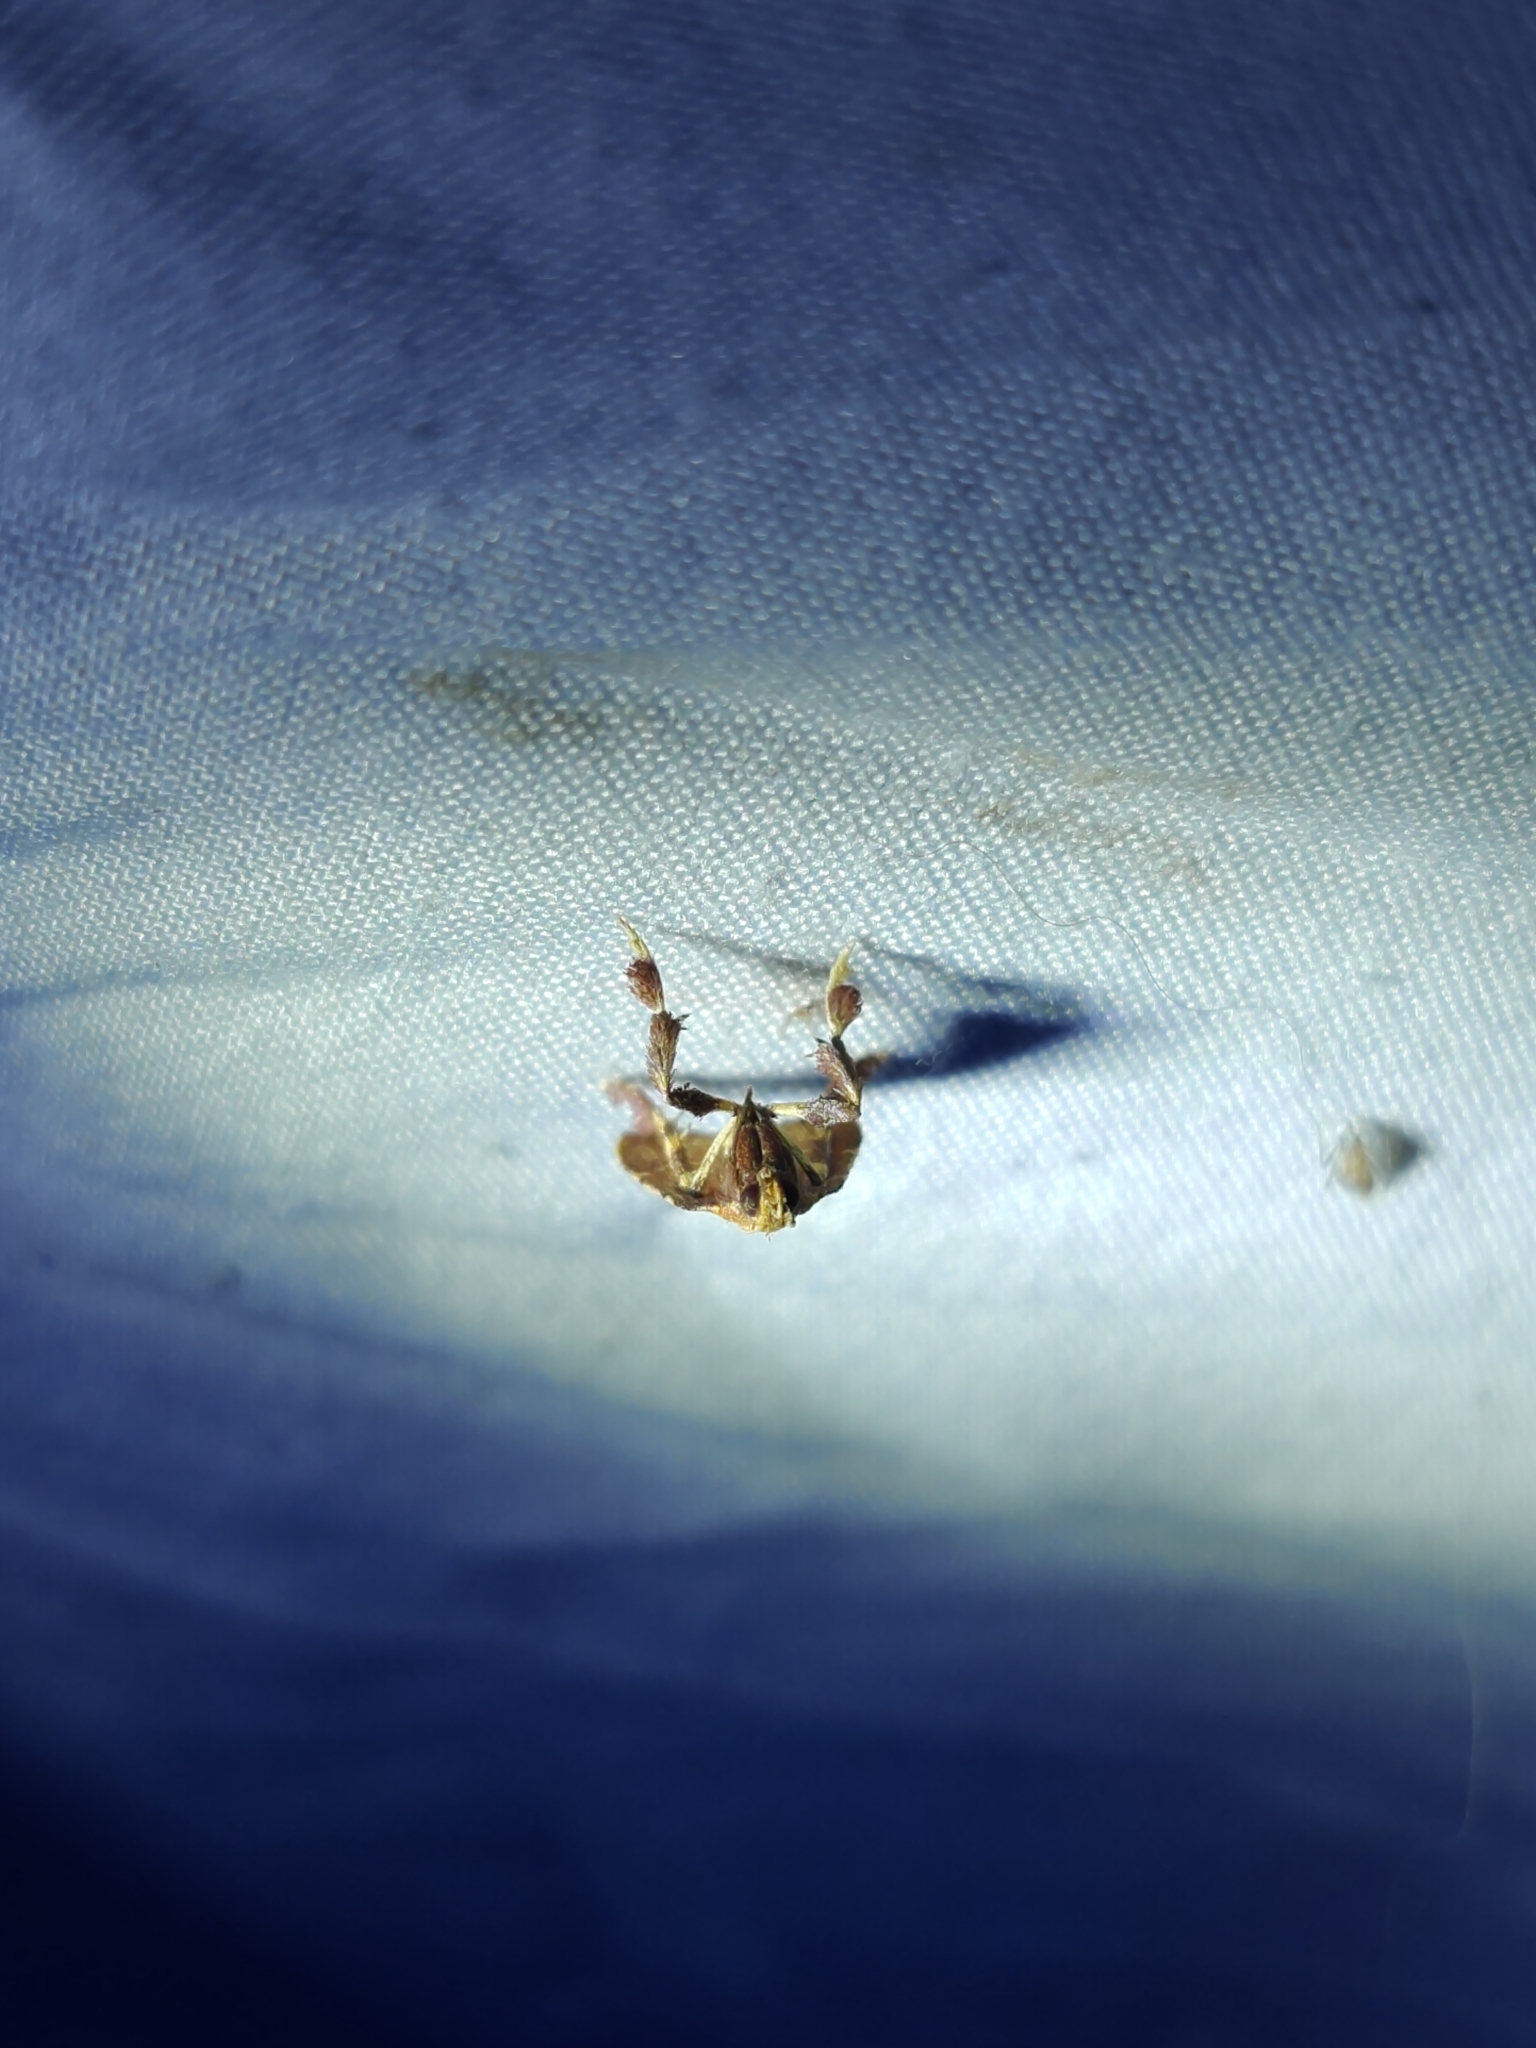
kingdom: Animalia
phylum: Arthropoda
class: Insecta
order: Lepidoptera
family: Pyralidae
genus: Parachma
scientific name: Parachma ochracealis
